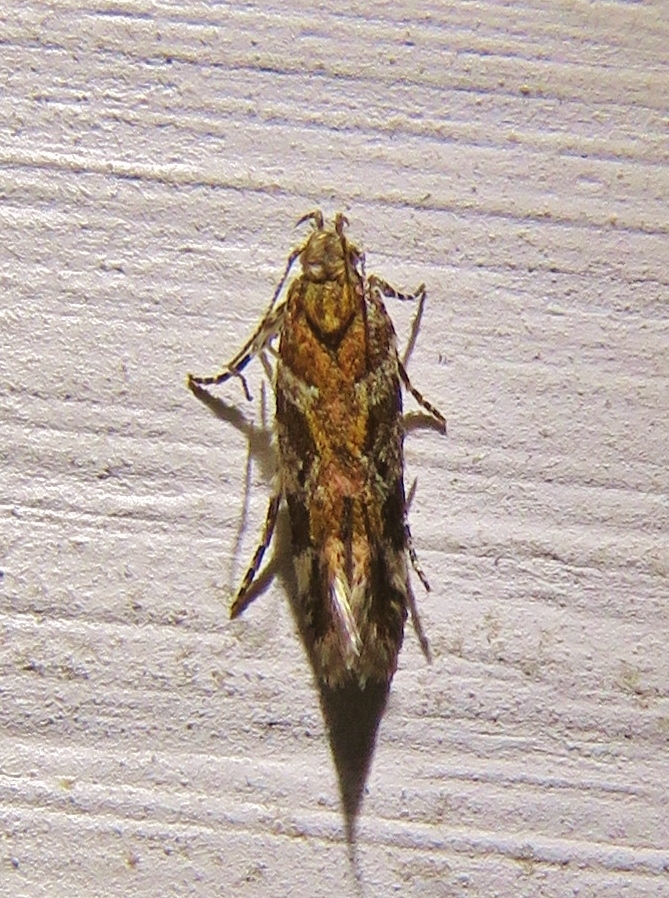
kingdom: Animalia
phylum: Arthropoda
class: Insecta
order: Lepidoptera
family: Gelechiidae
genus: Aristotelia
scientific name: Aristotelia roseosuffusella
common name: Pink-washed aristotelia moth
